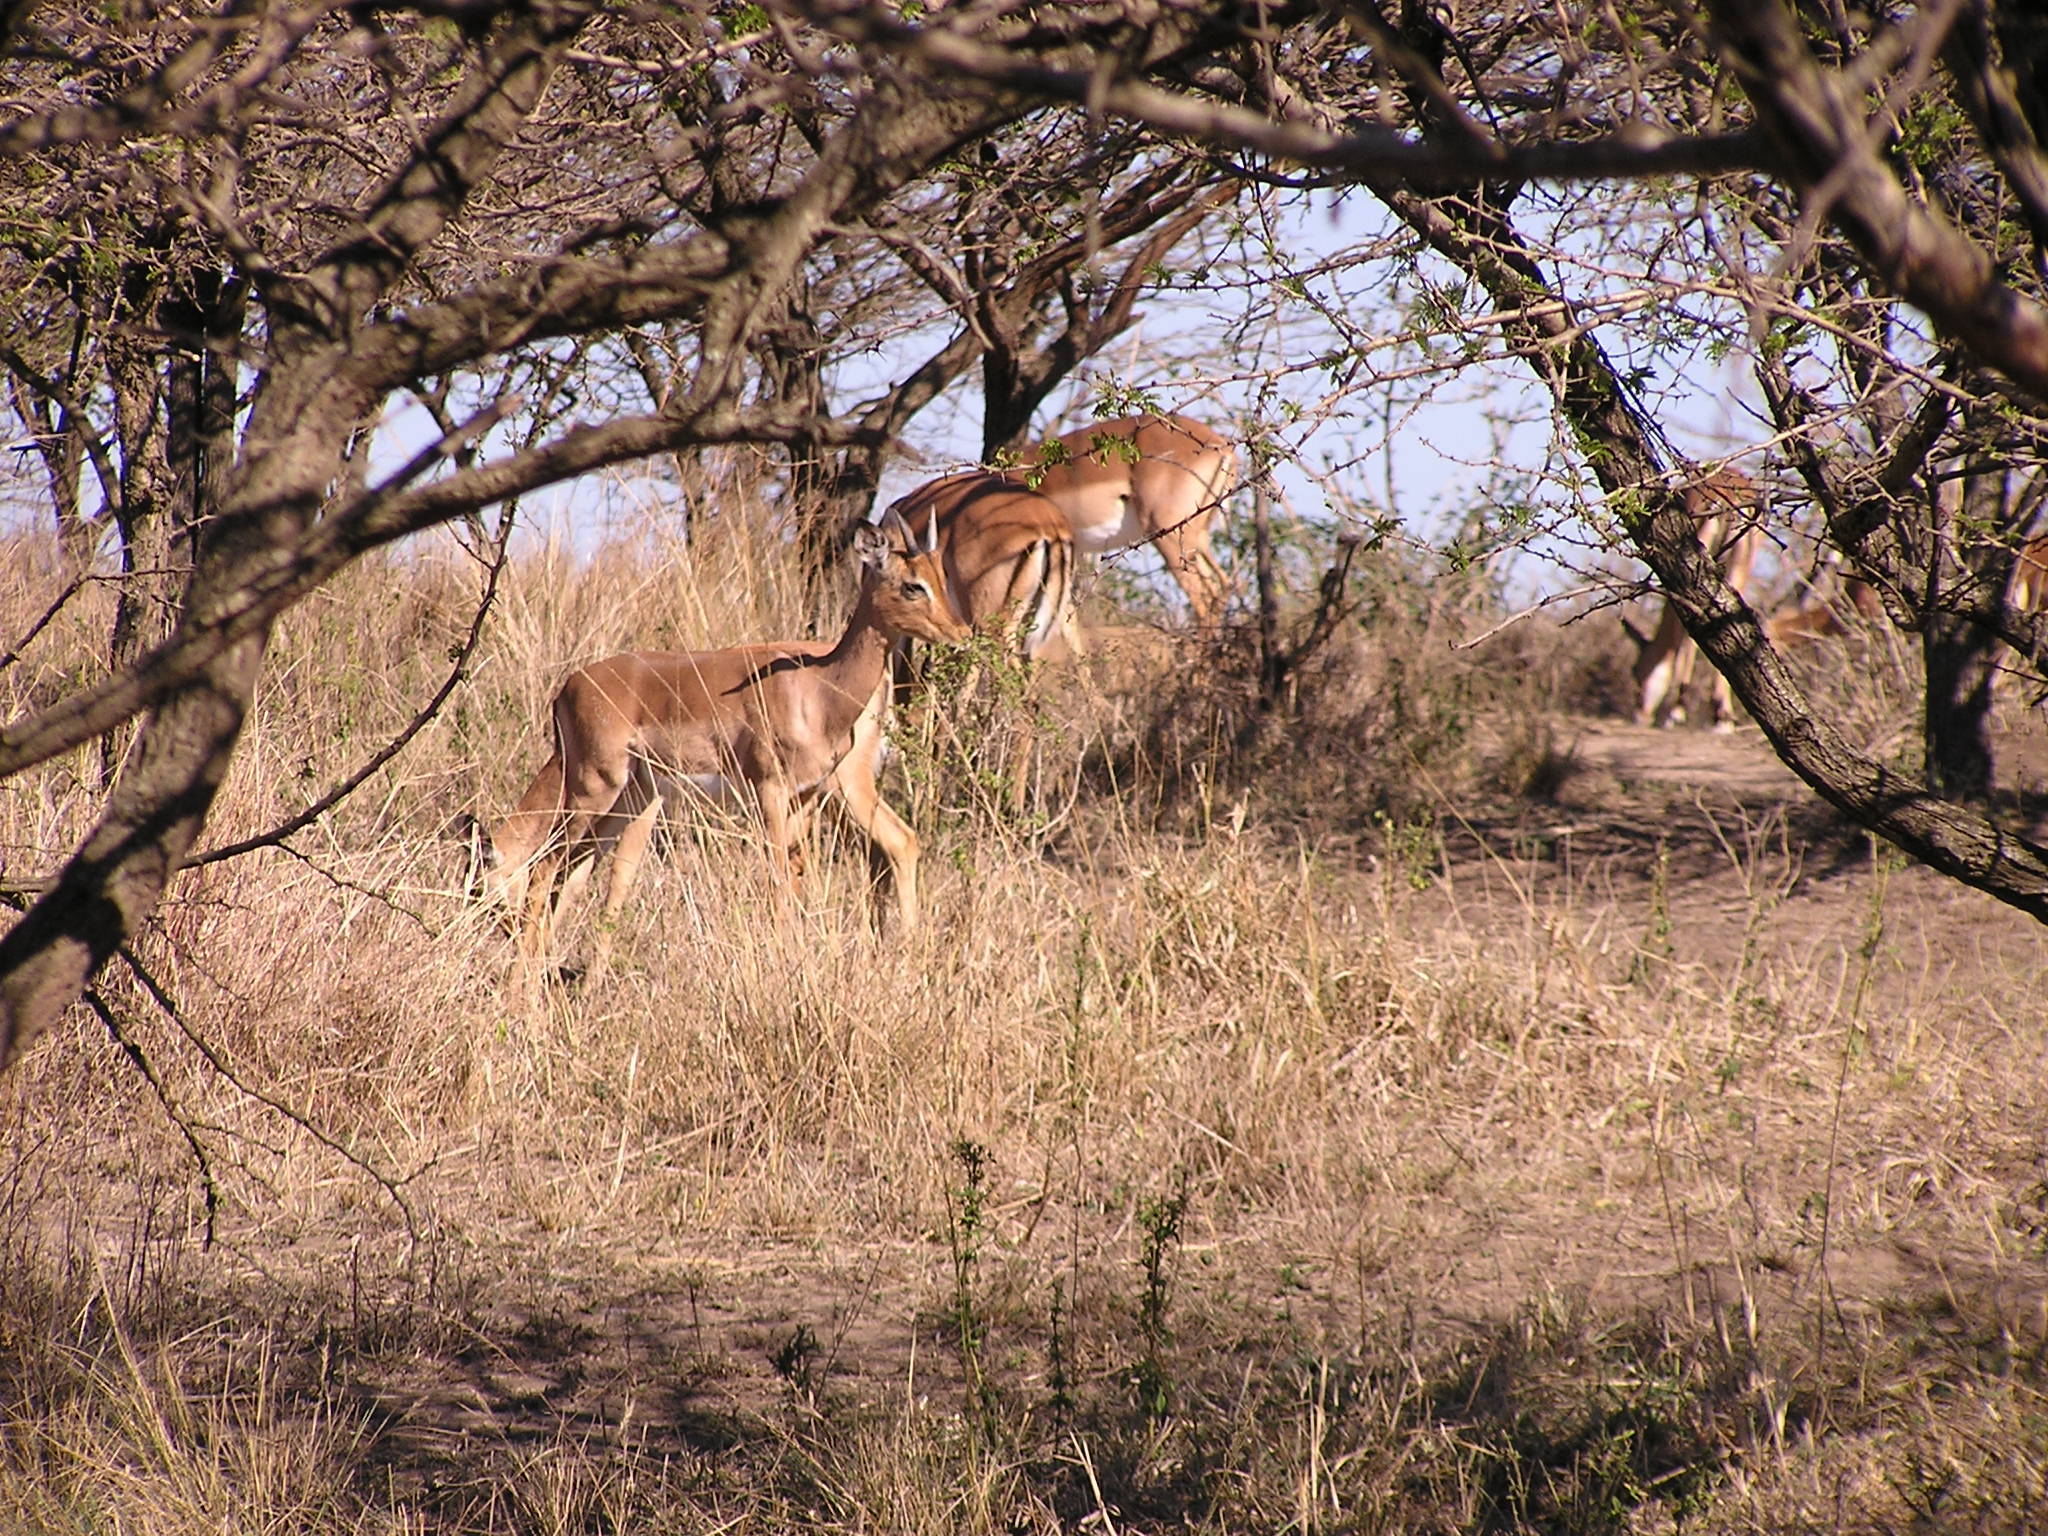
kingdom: Animalia
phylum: Chordata
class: Mammalia
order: Artiodactyla
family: Bovidae
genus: Aepyceros
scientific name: Aepyceros melampus
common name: Impala
